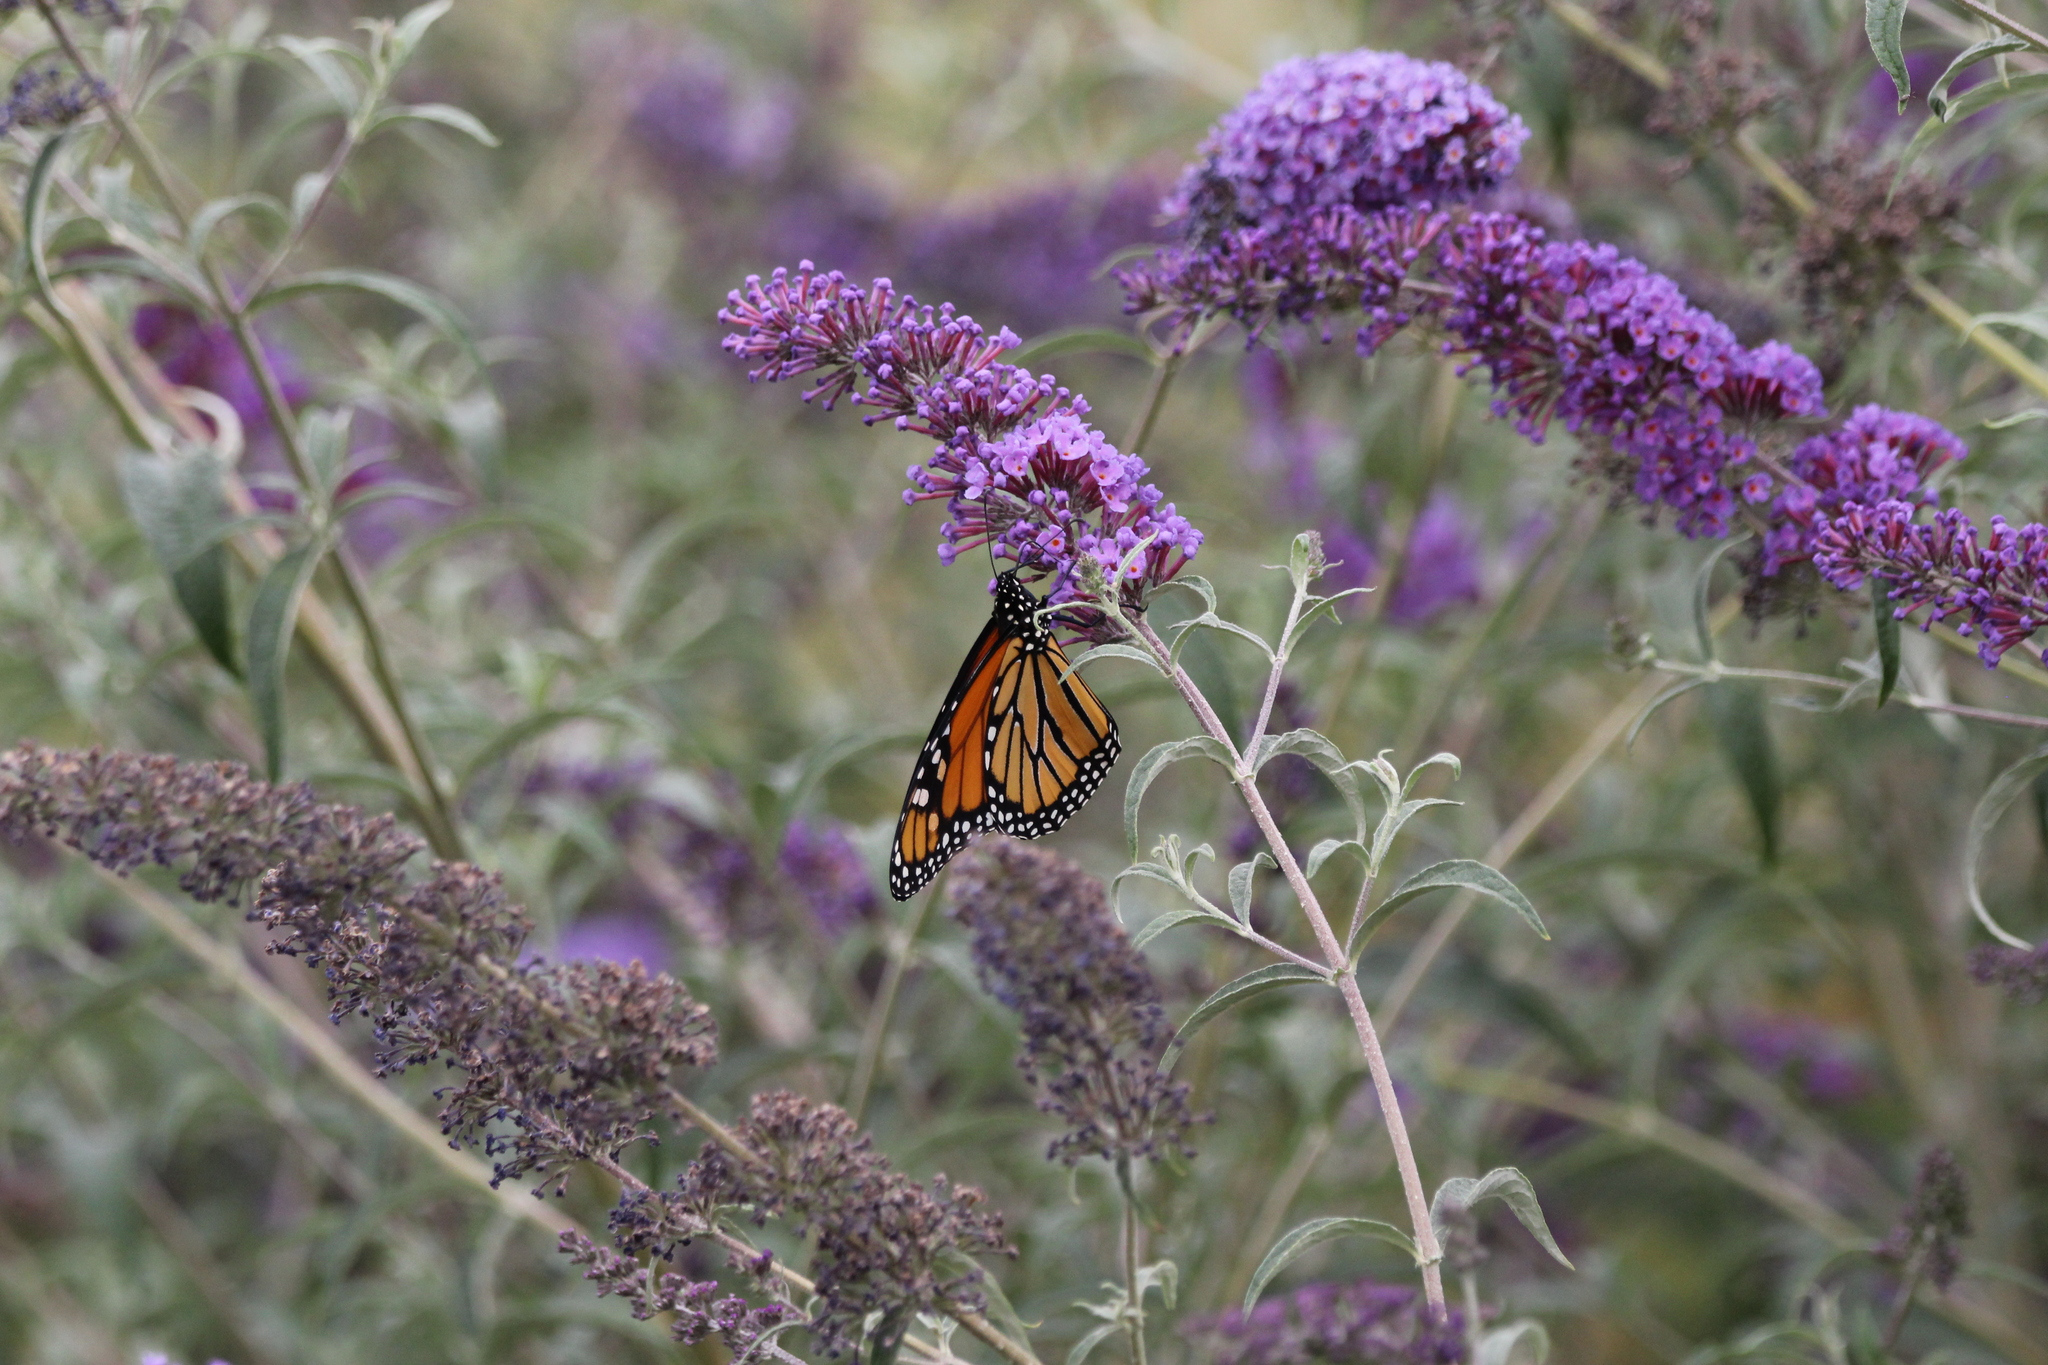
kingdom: Animalia
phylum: Arthropoda
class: Insecta
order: Lepidoptera
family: Nymphalidae
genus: Danaus
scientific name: Danaus plexippus
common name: Monarch
